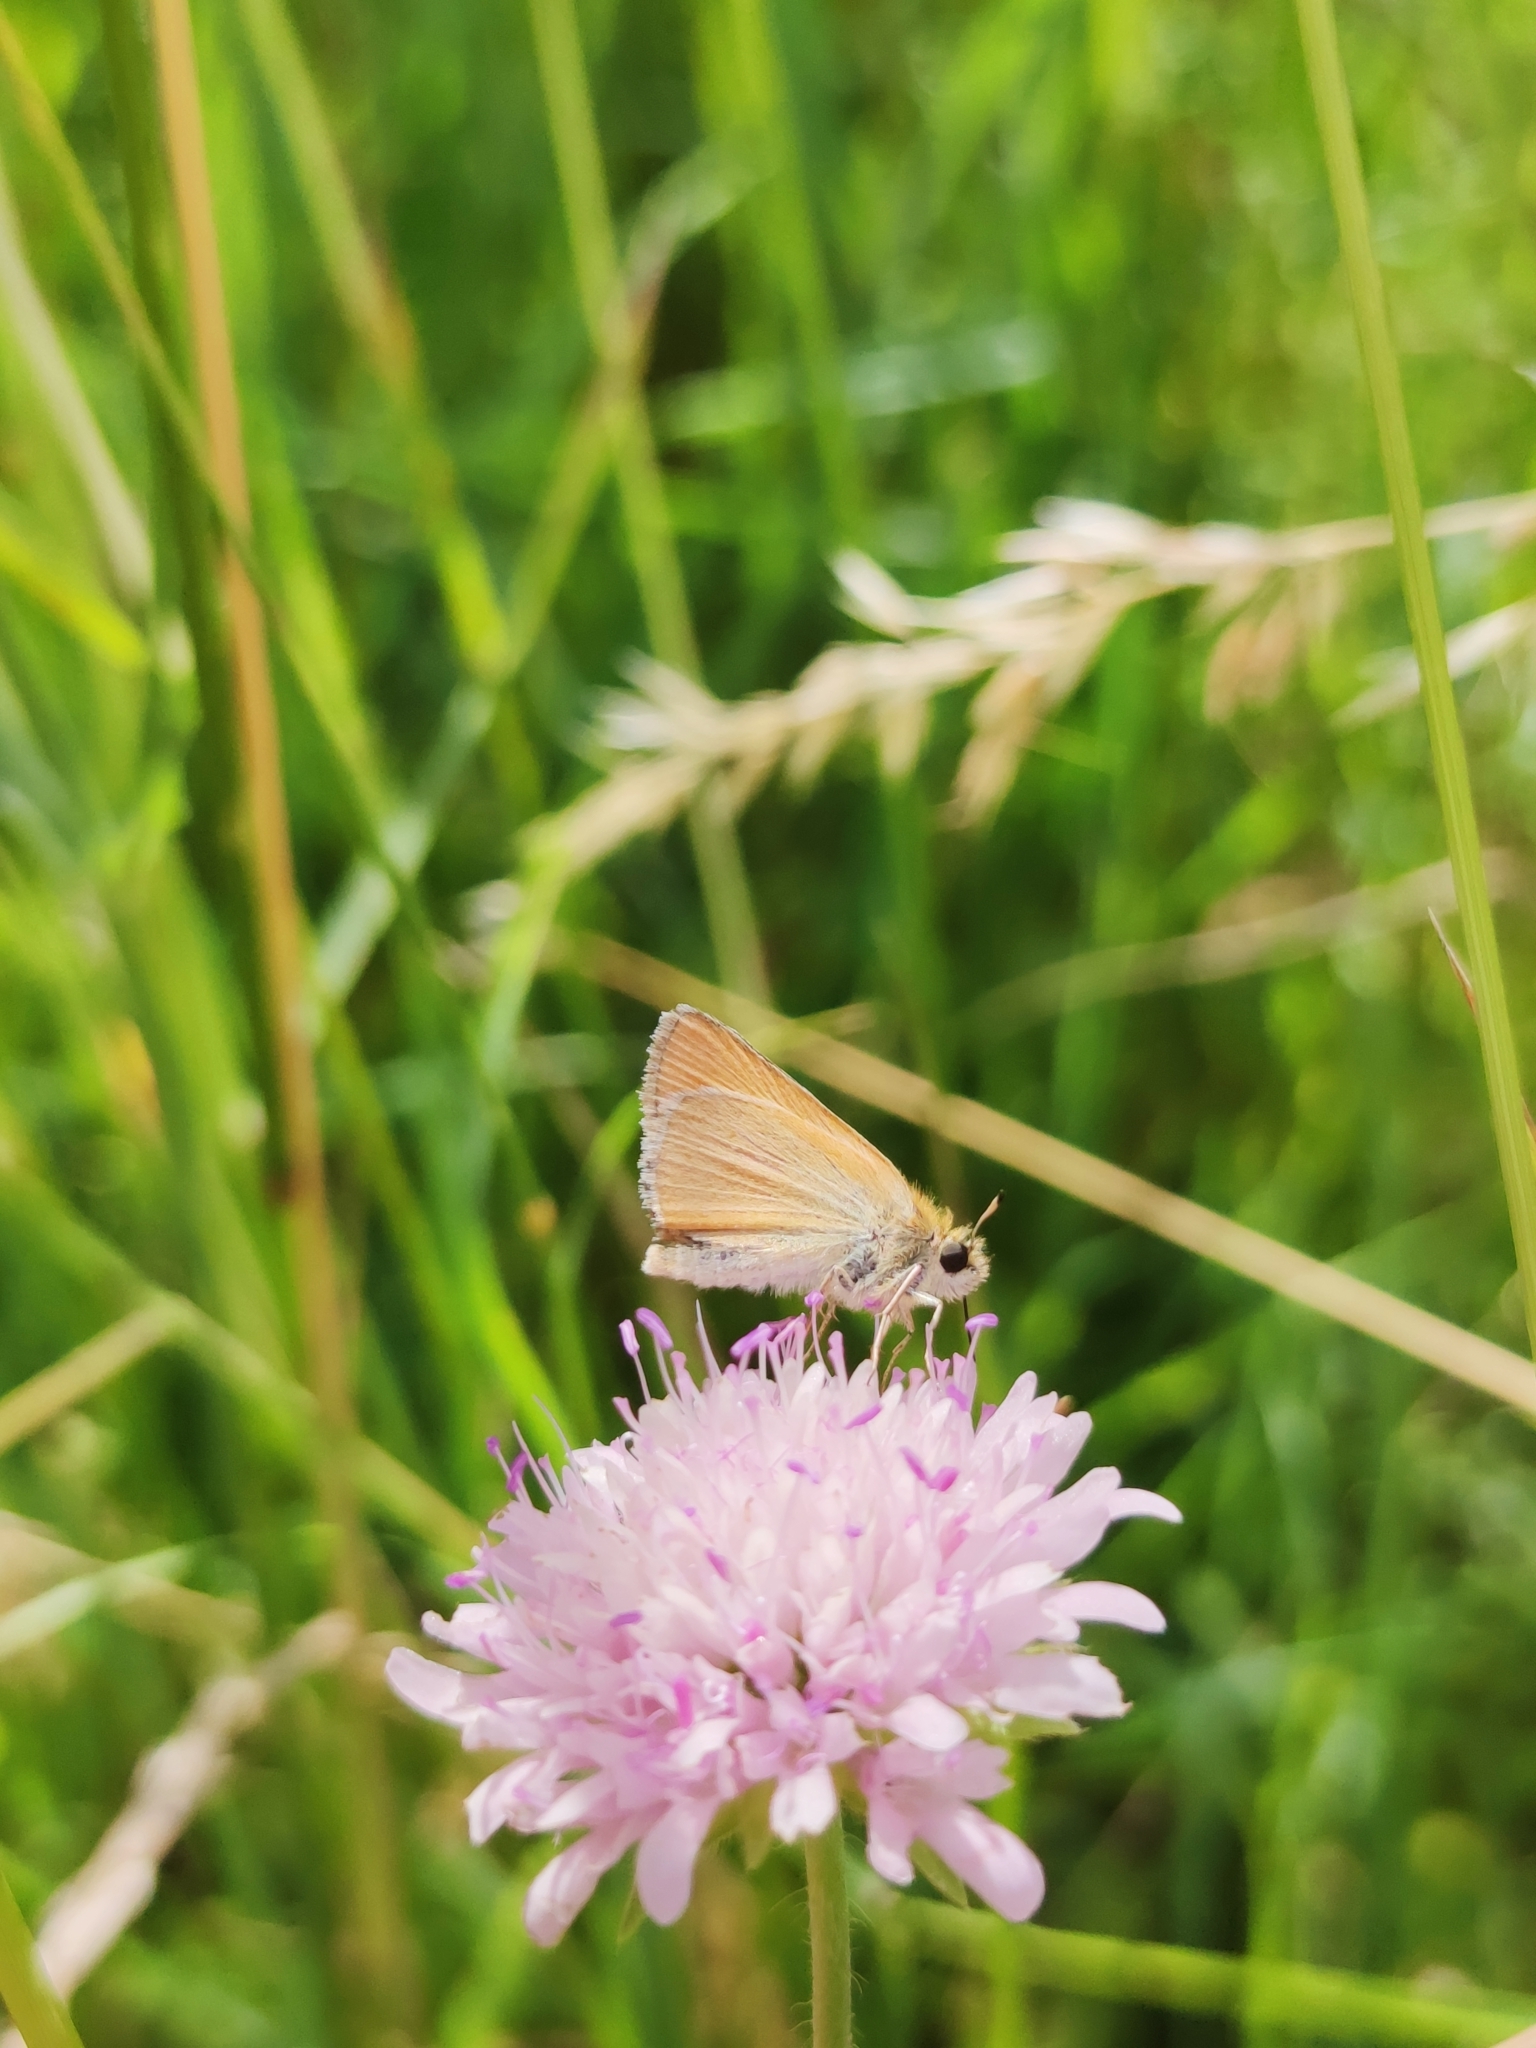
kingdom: Animalia
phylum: Arthropoda
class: Insecta
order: Lepidoptera
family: Hesperiidae
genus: Thymelicus
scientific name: Thymelicus lineola
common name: Essex skipper
